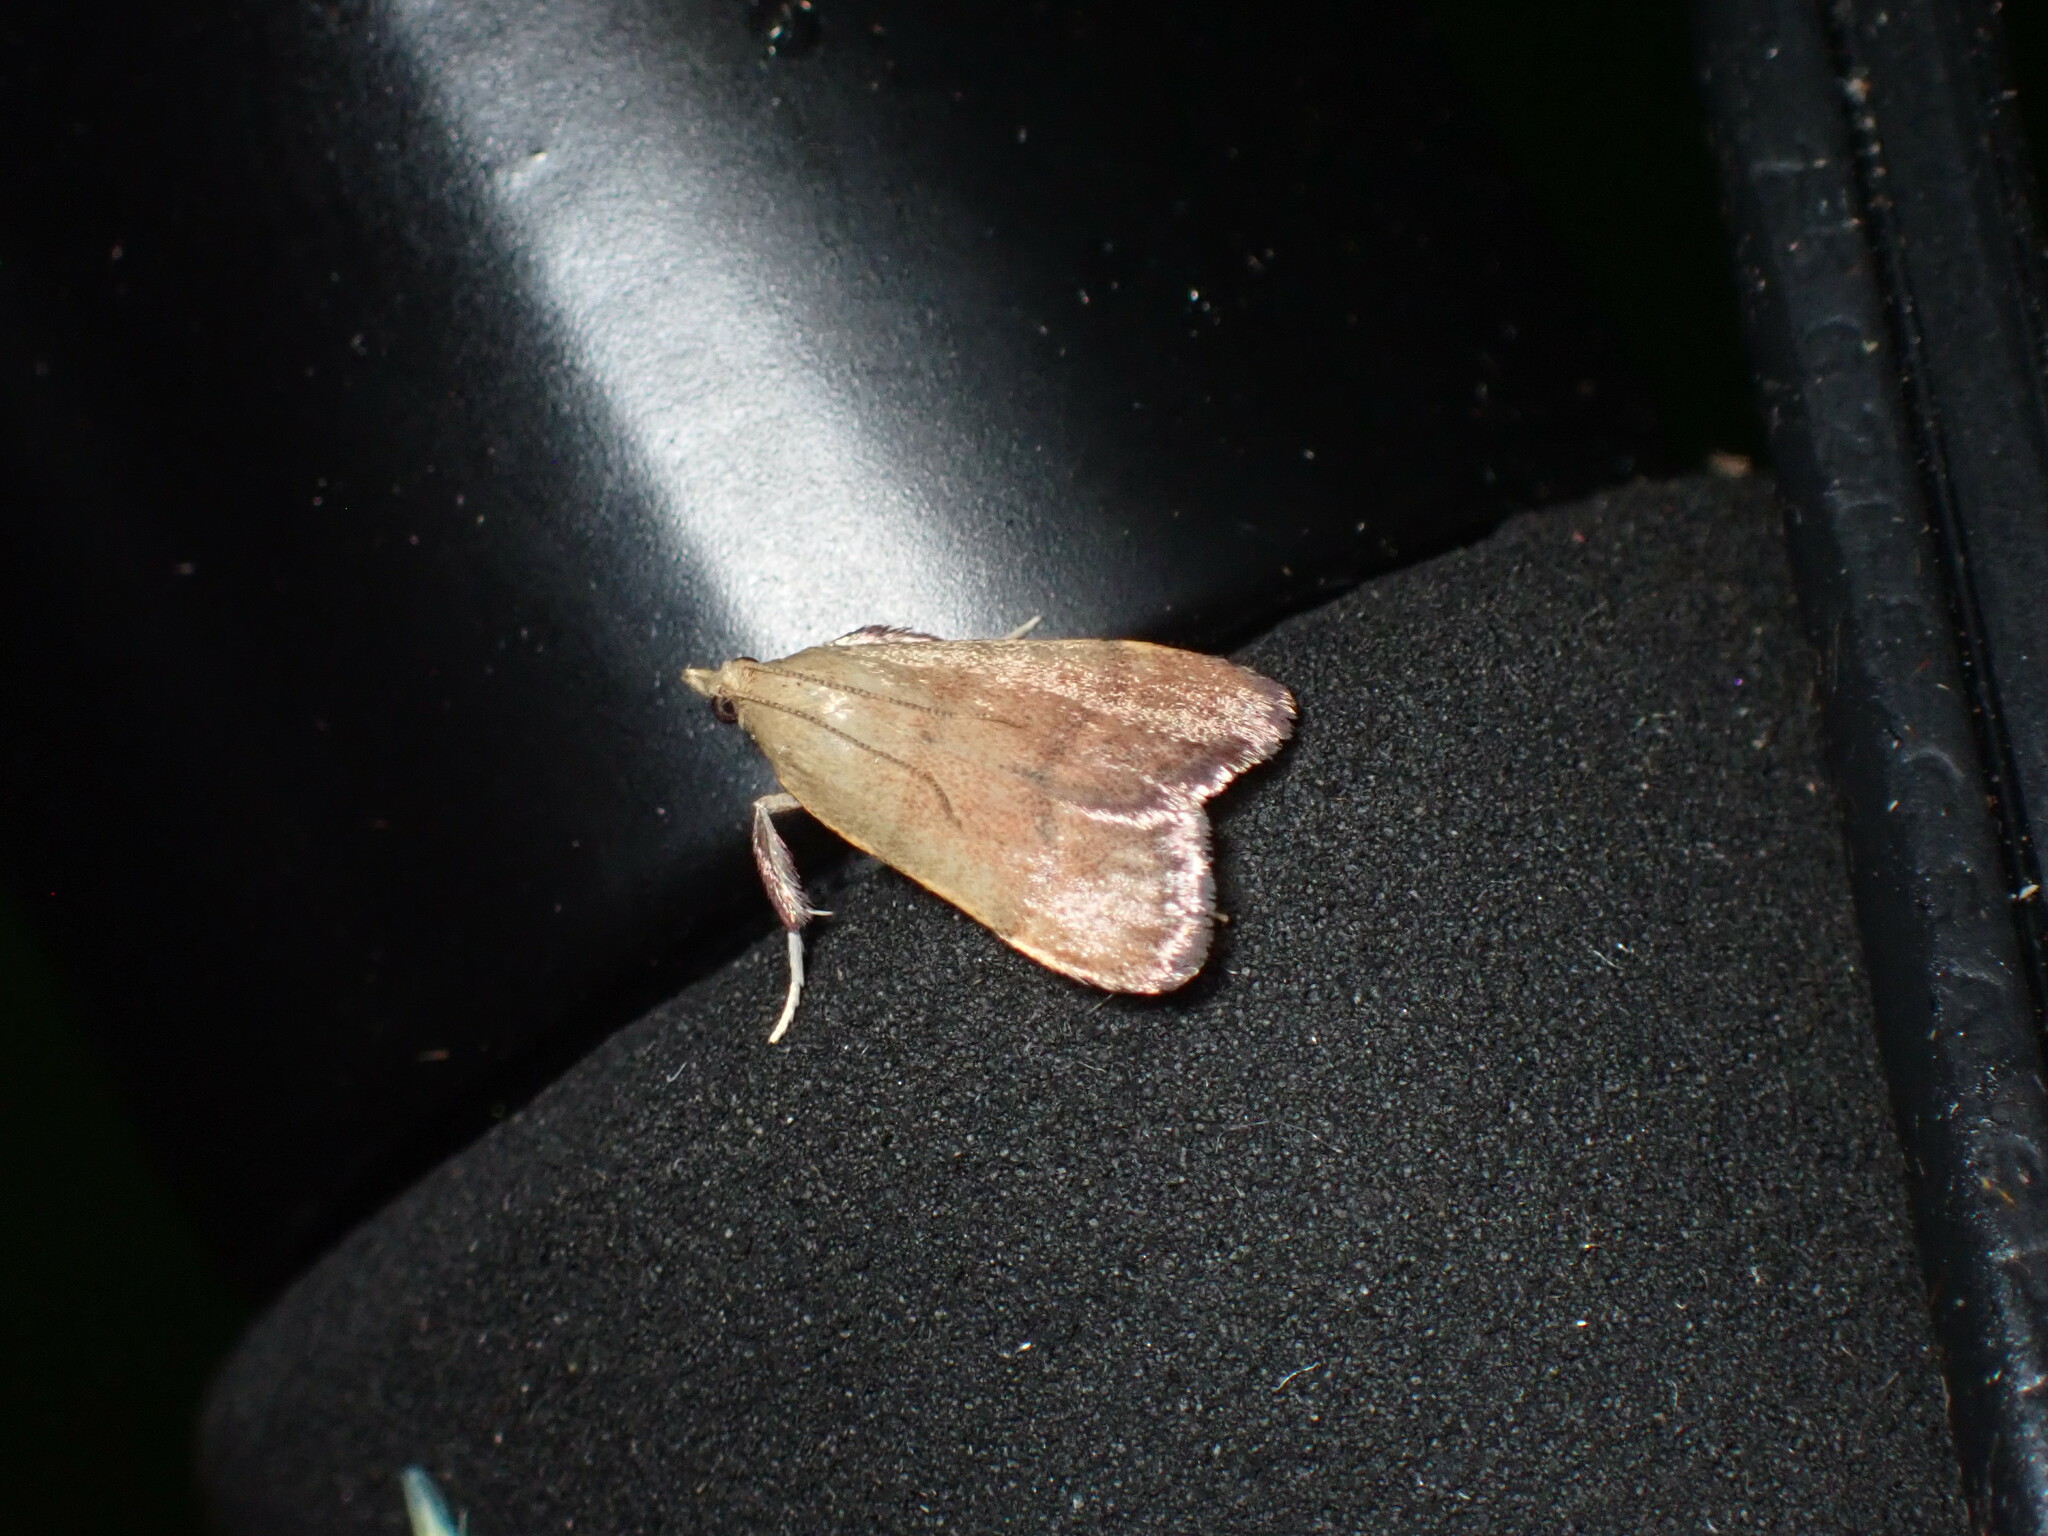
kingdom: Animalia
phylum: Arthropoda
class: Insecta
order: Lepidoptera
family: Pyralidae
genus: Condylolomia
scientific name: Condylolomia participialis
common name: Drab condylolomia moth
